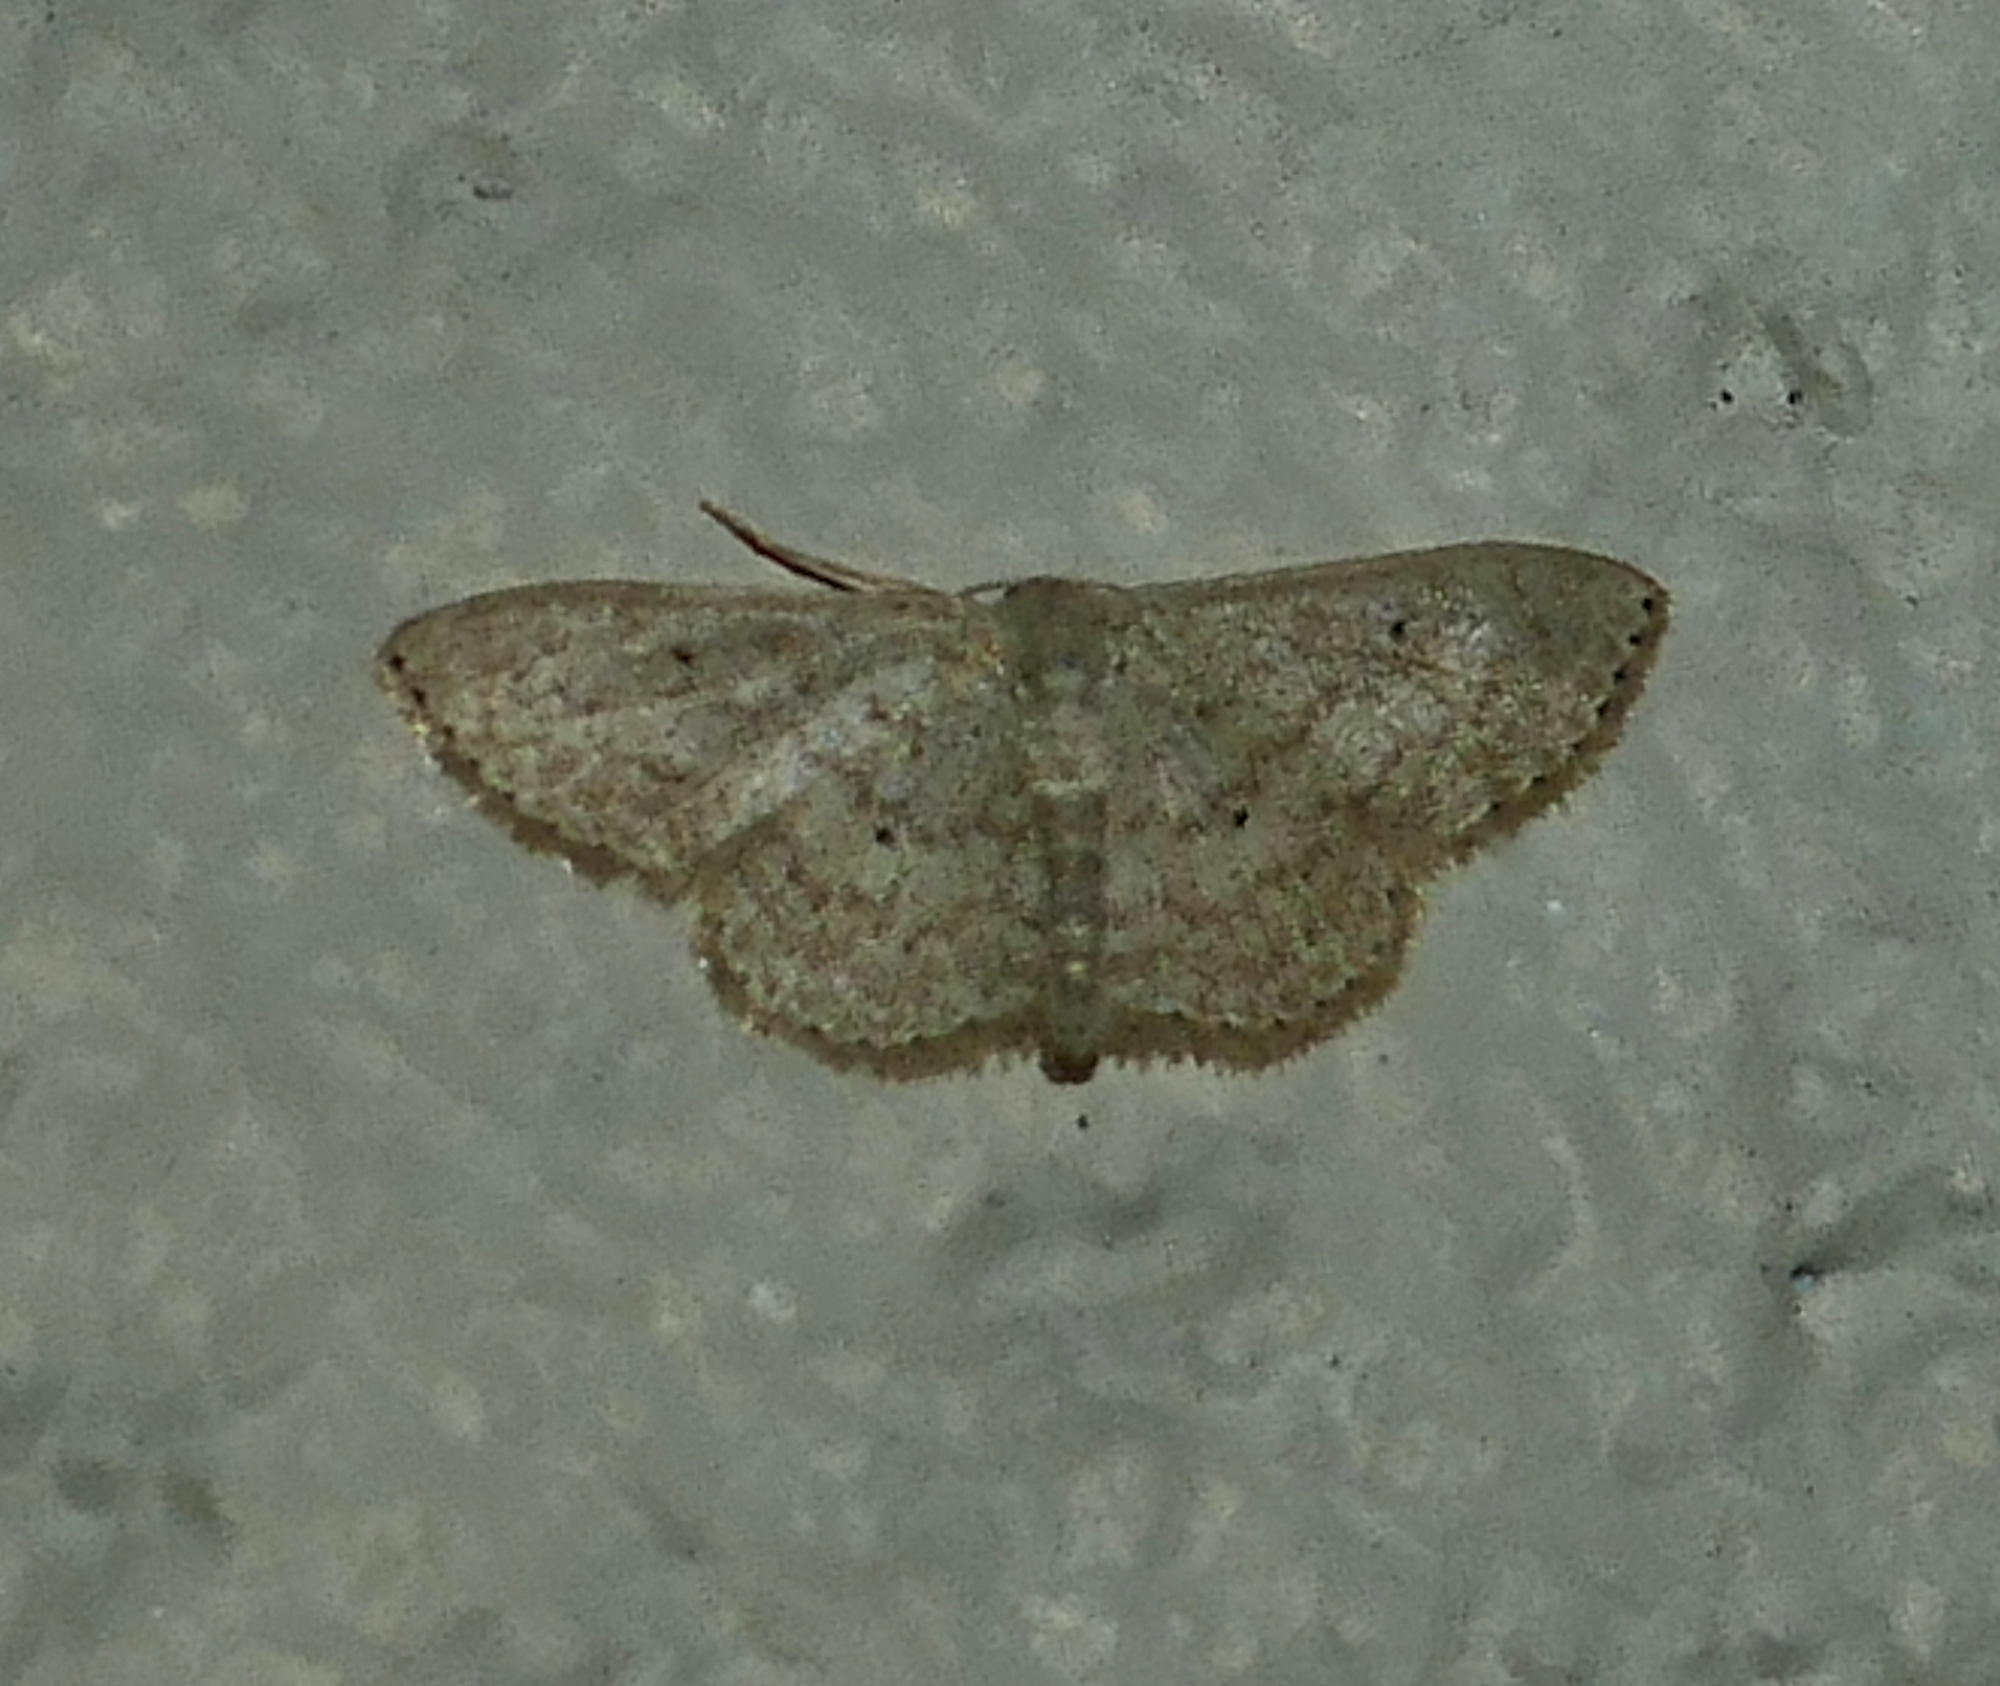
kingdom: Animalia
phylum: Arthropoda
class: Insecta
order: Lepidoptera
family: Geometridae
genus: Scopula
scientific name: Scopula benitaria
